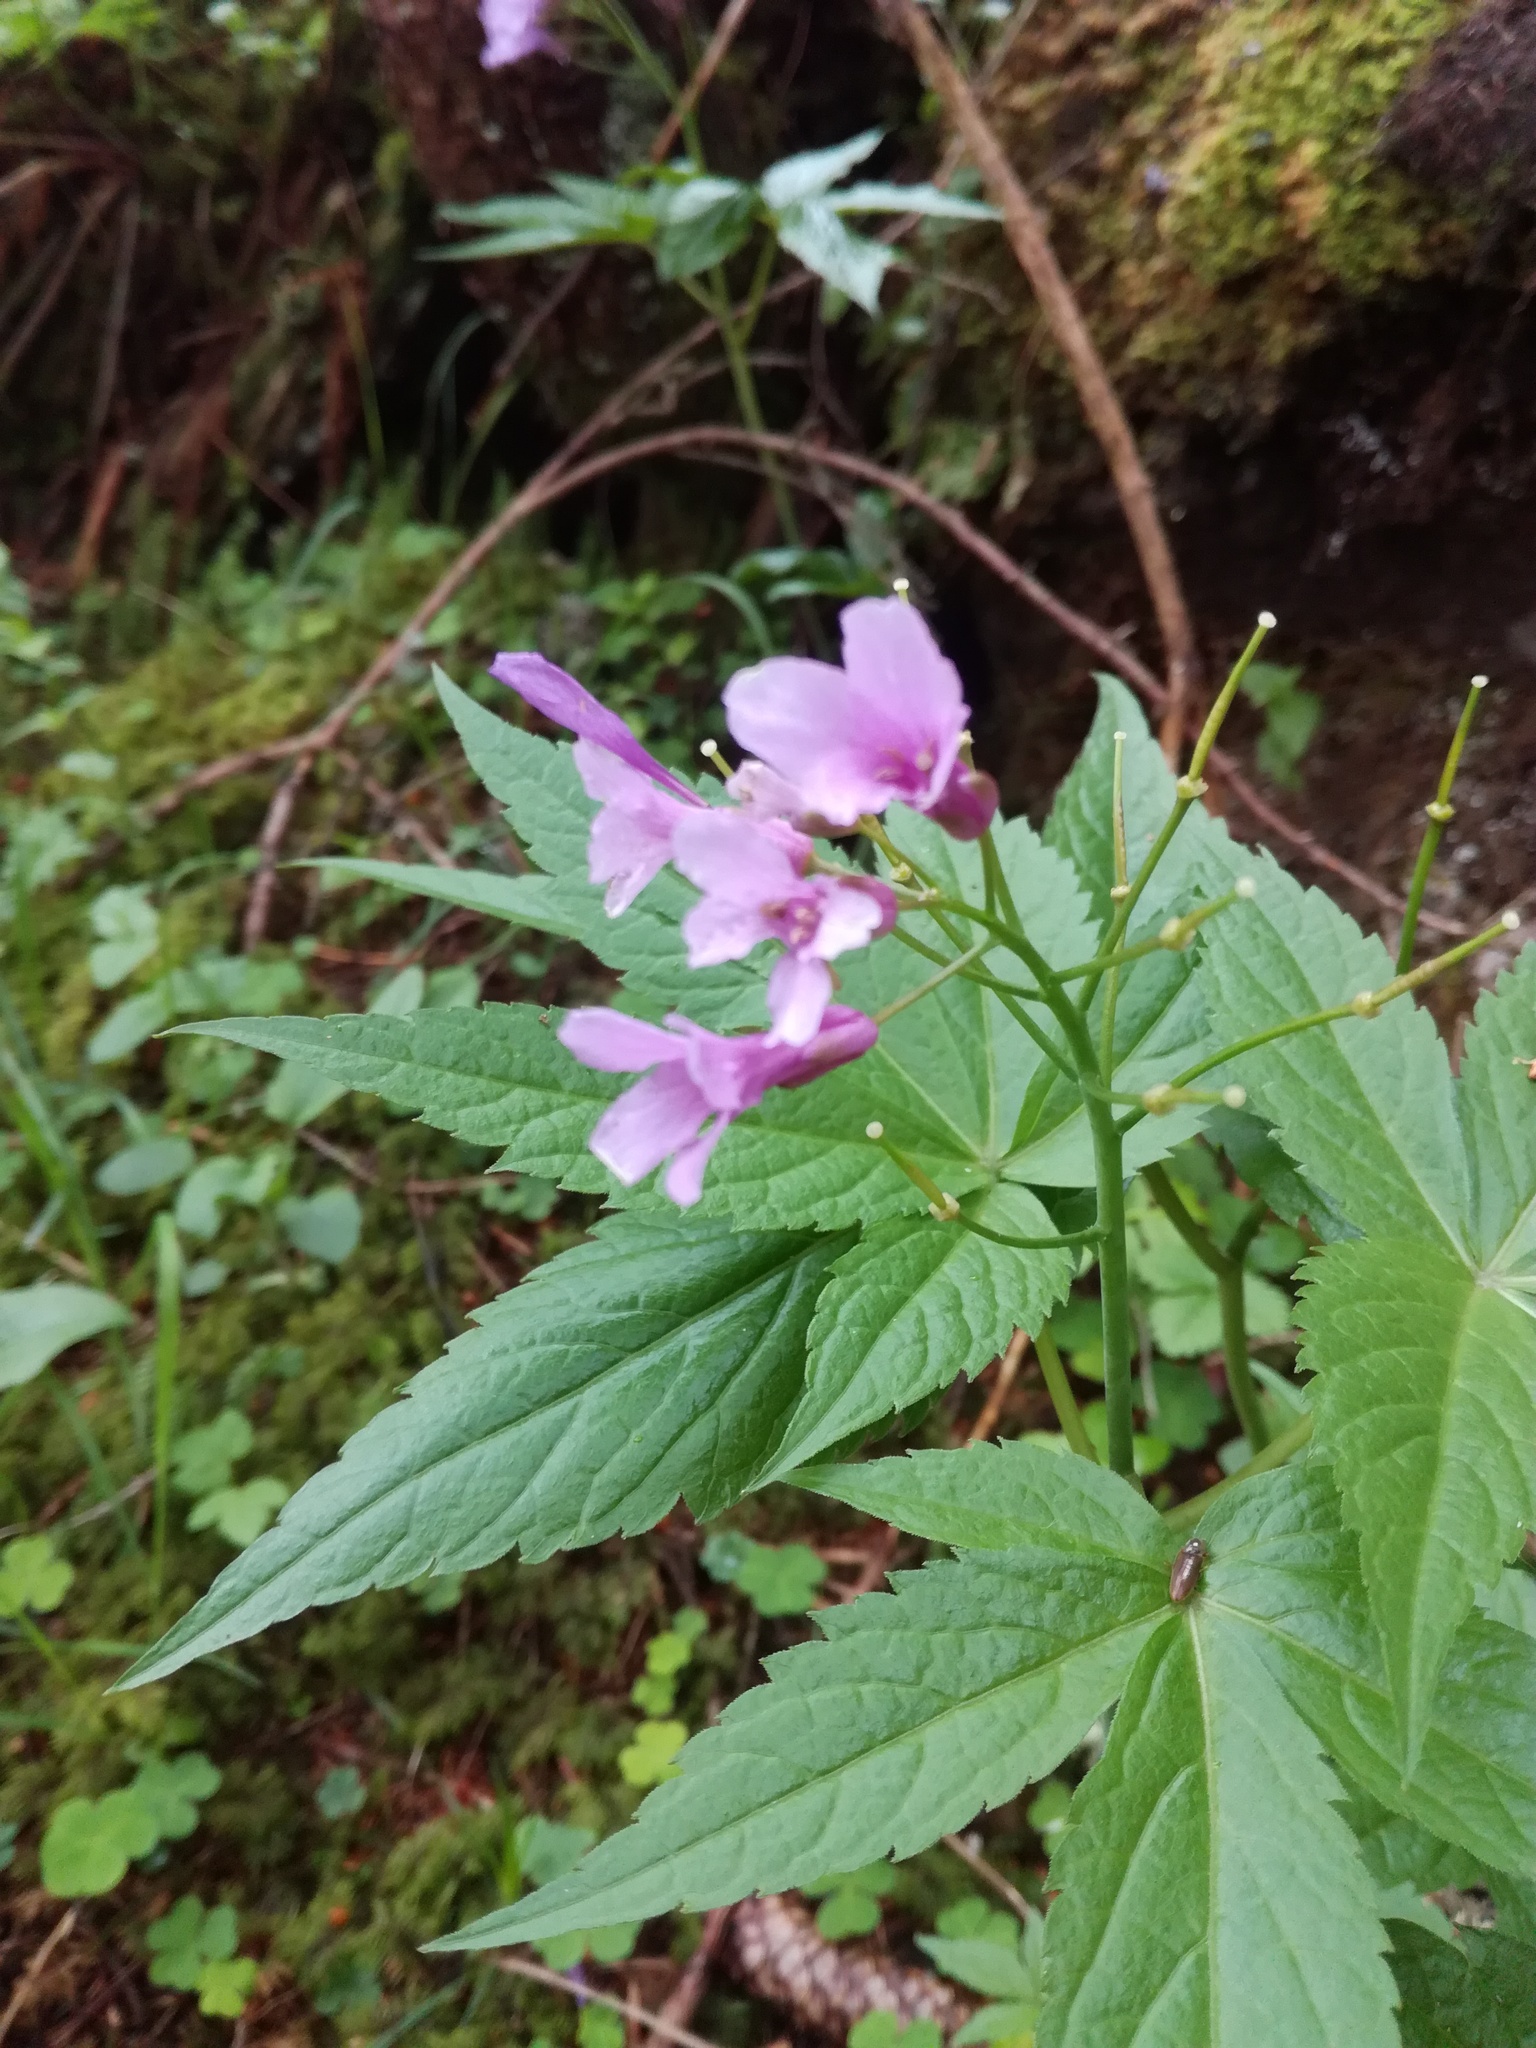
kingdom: Plantae
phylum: Tracheophyta
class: Magnoliopsida
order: Brassicales
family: Brassicaceae
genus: Cardamine
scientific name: Cardamine pentaphyllos
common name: Five-leaflet bitter-cress
